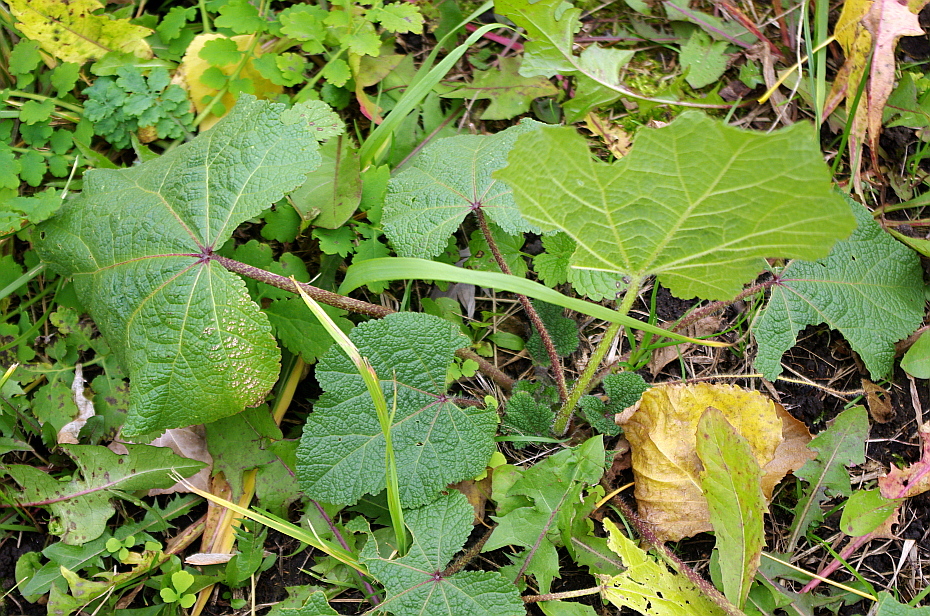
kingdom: Plantae
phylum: Tracheophyta
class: Magnoliopsida
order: Malvales
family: Malvaceae
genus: Alcea
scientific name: Alcea rosea
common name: Hollyhock
